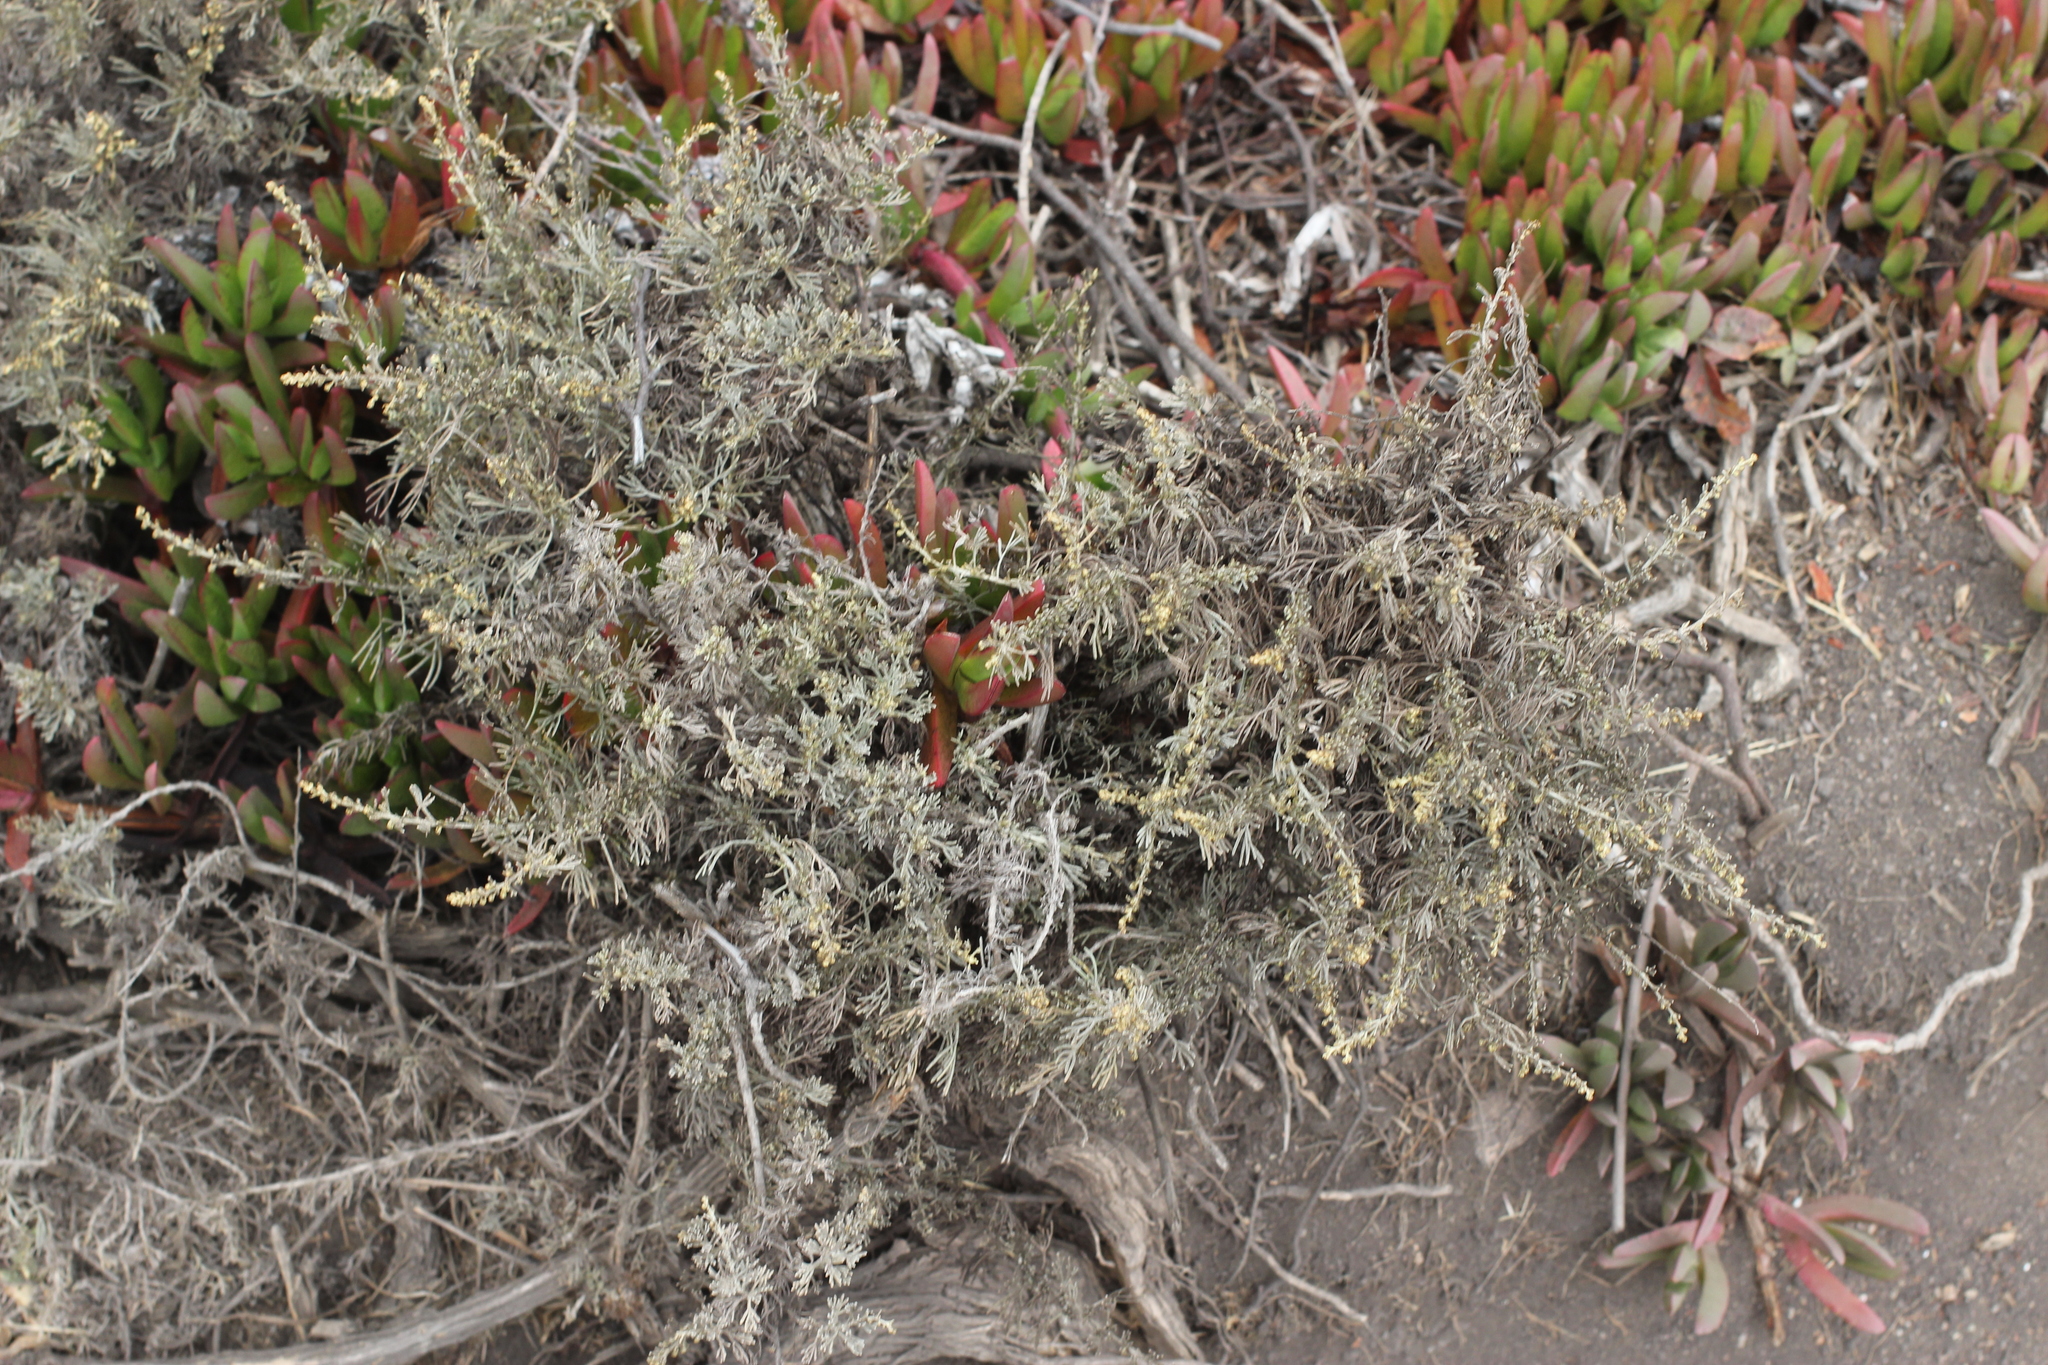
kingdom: Plantae
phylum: Tracheophyta
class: Magnoliopsida
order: Asterales
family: Asteraceae
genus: Artemisia
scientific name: Artemisia californica
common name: California sagebrush
